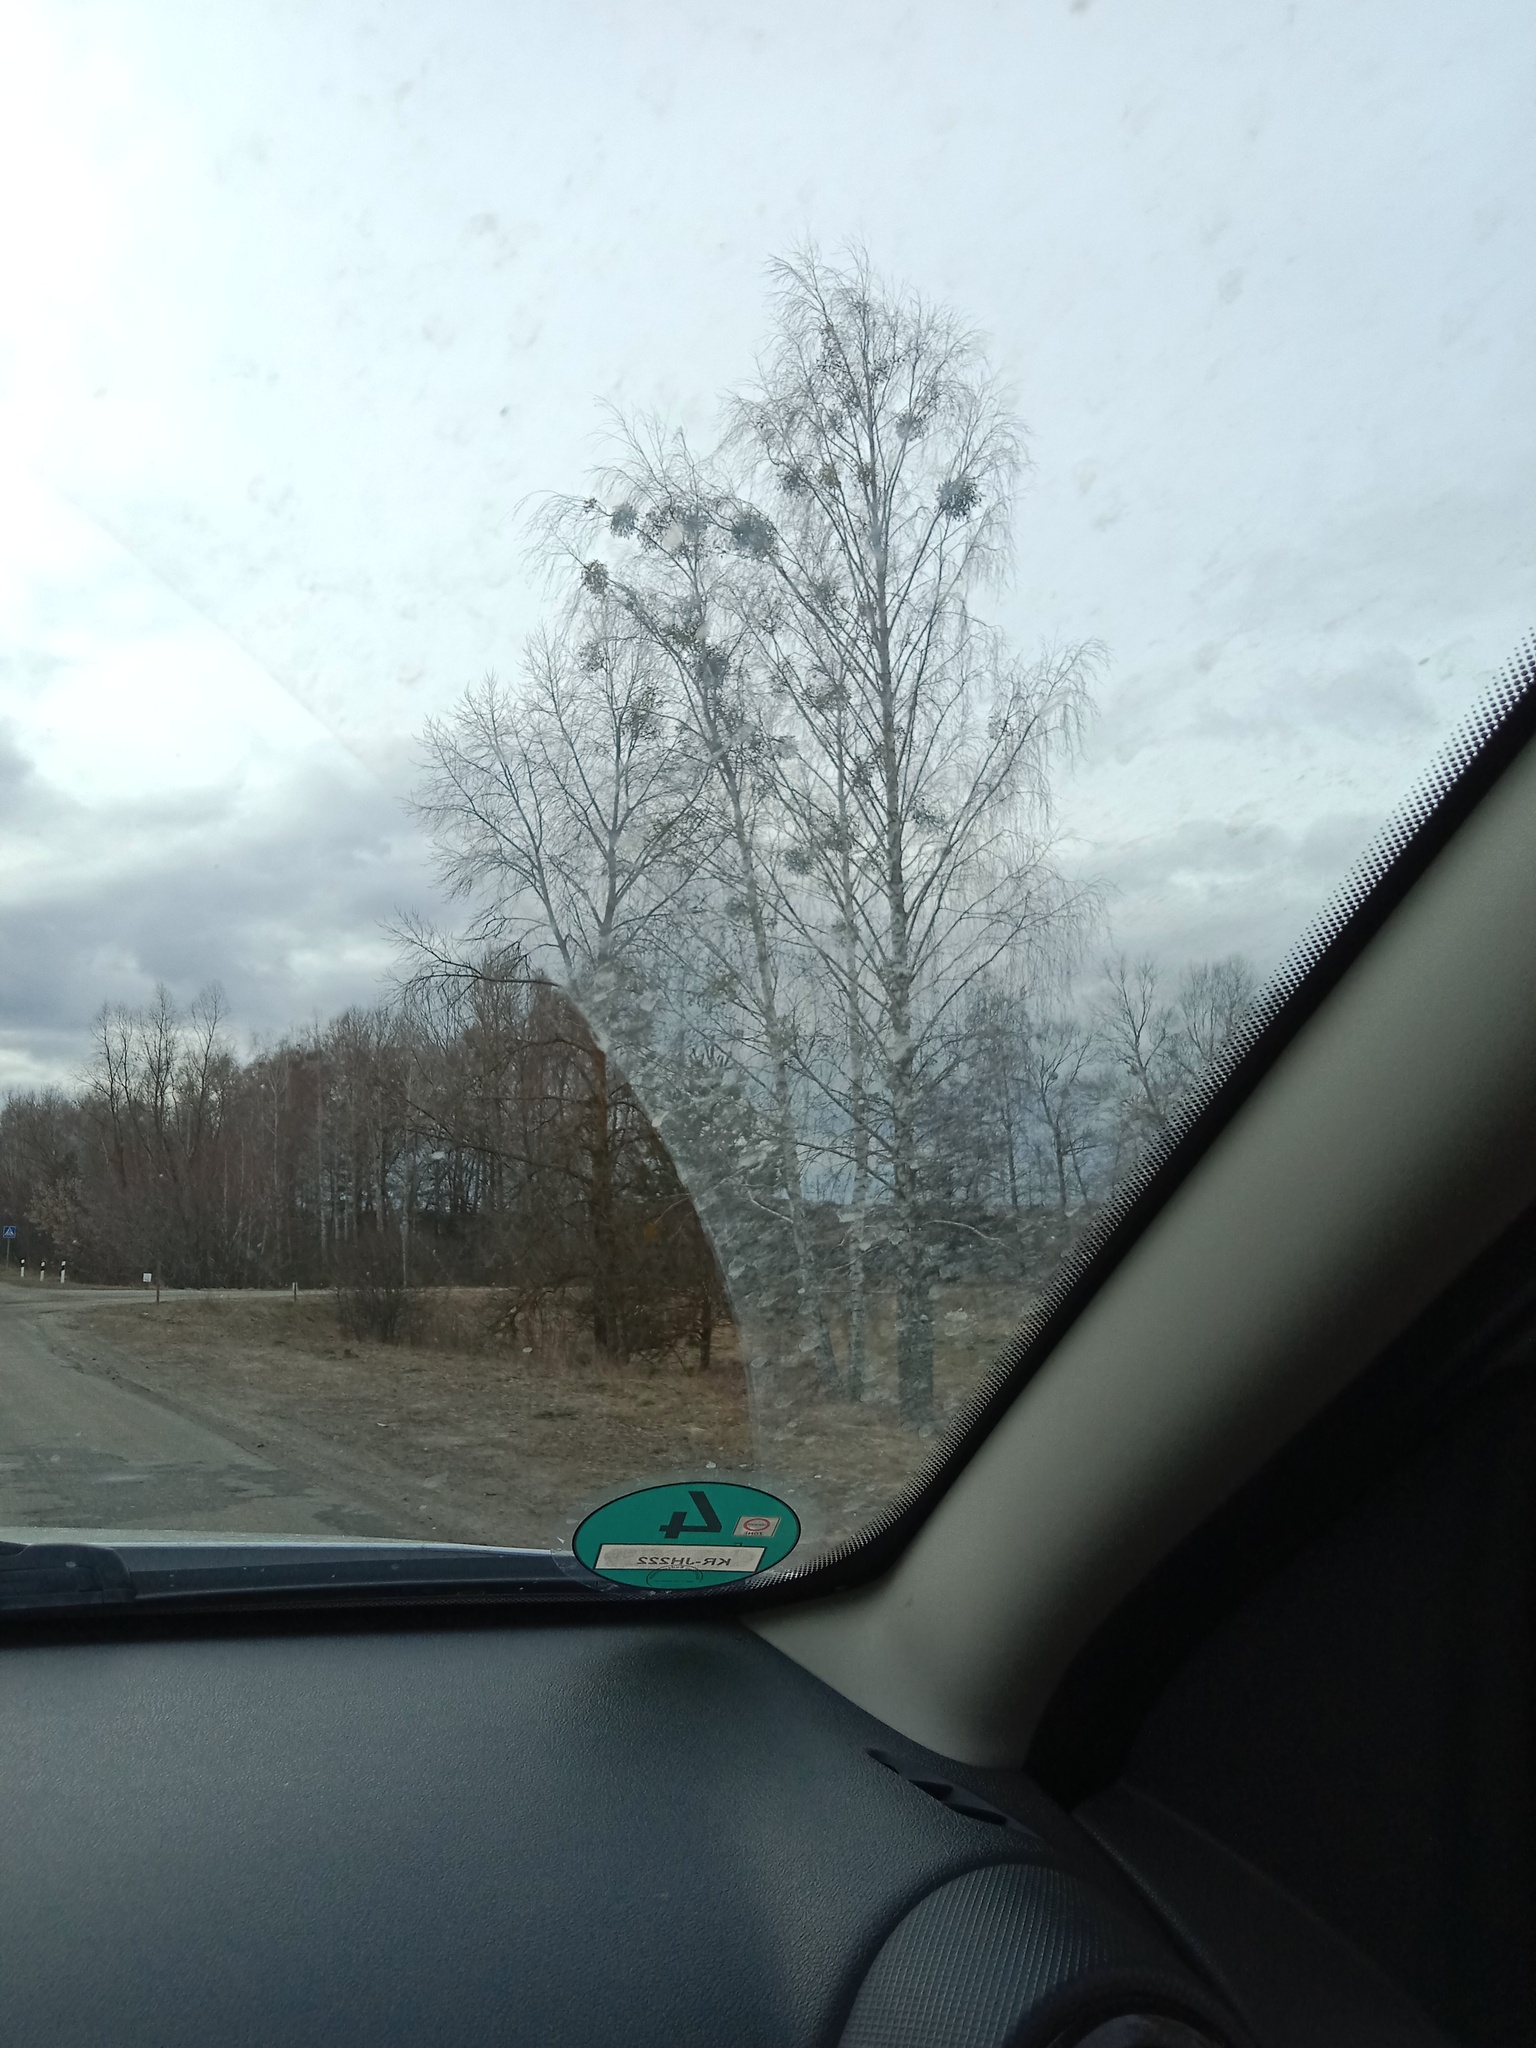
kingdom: Plantae
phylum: Tracheophyta
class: Magnoliopsida
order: Santalales
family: Viscaceae
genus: Viscum
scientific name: Viscum album
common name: Mistletoe
